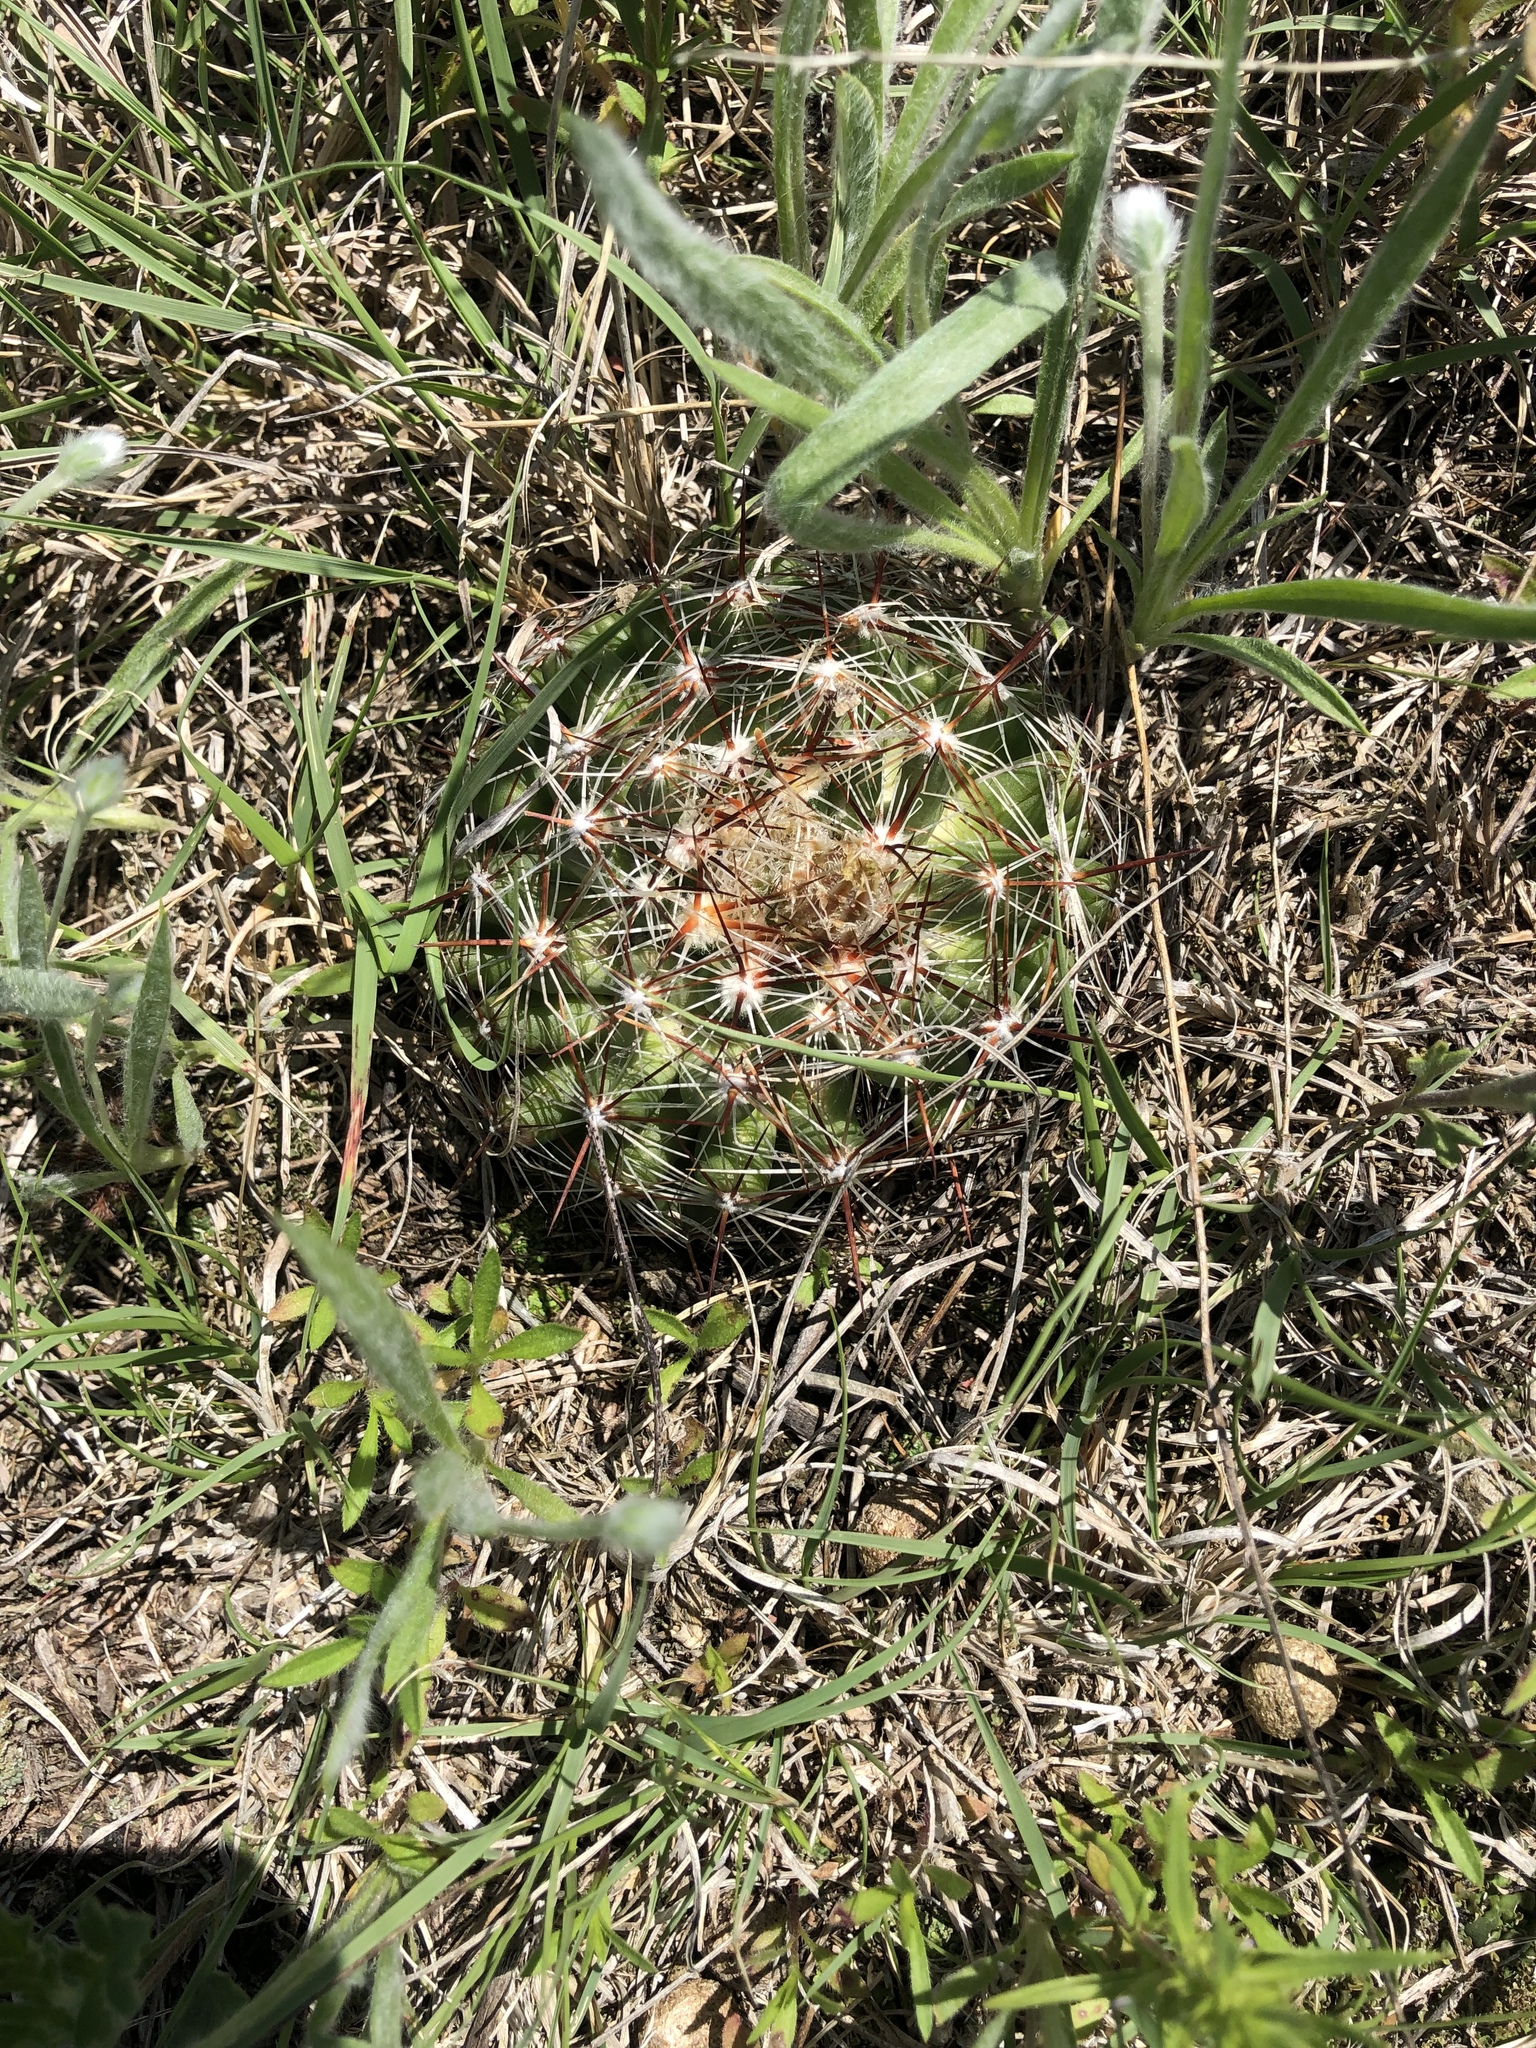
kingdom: Plantae
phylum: Tracheophyta
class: Magnoliopsida
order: Caryophyllales
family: Cactaceae
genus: Pelecyphora
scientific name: Pelecyphora vivipara
